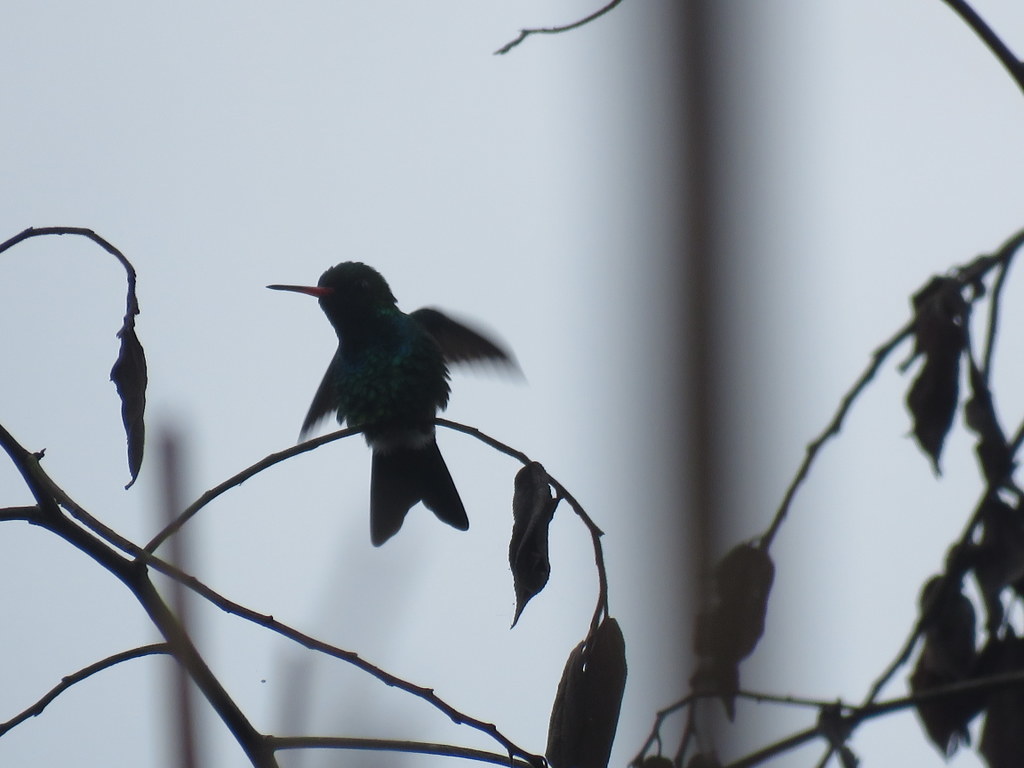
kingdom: Animalia
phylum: Chordata
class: Aves
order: Apodiformes
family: Trochilidae
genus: Chlorostilbon
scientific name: Chlorostilbon lucidus
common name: Glittering-bellied emerald
